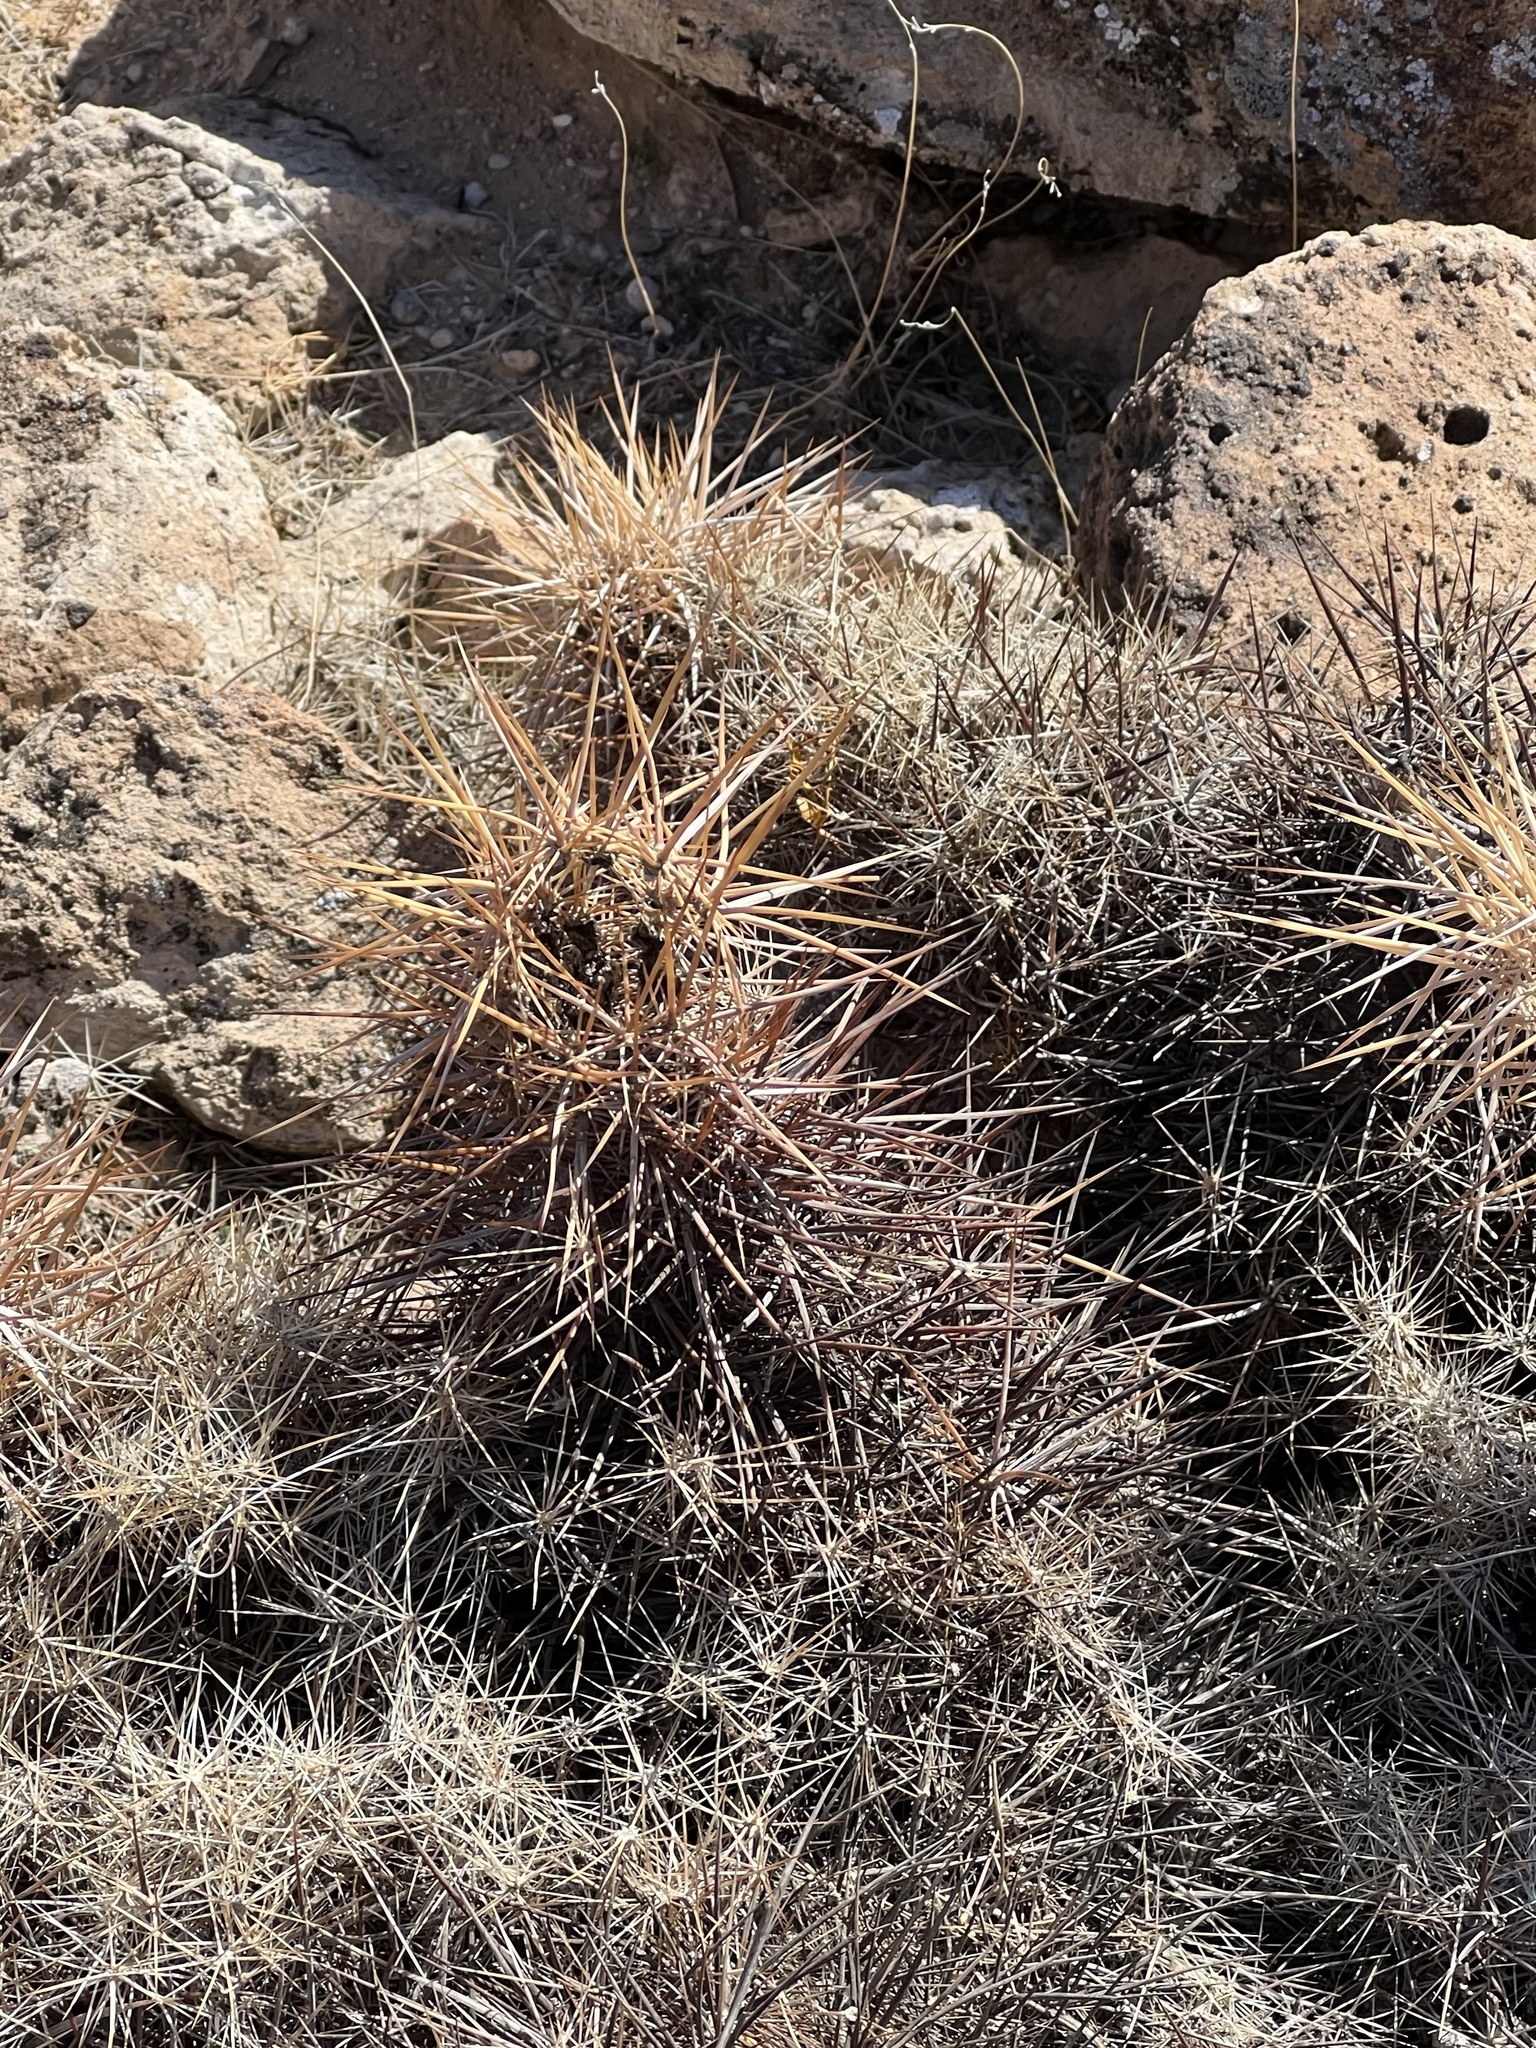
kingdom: Plantae
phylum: Tracheophyta
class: Magnoliopsida
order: Caryophyllales
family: Cactaceae
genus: Echinocereus
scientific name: Echinocereus engelmannii
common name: Engelmann's hedgehog cactus
